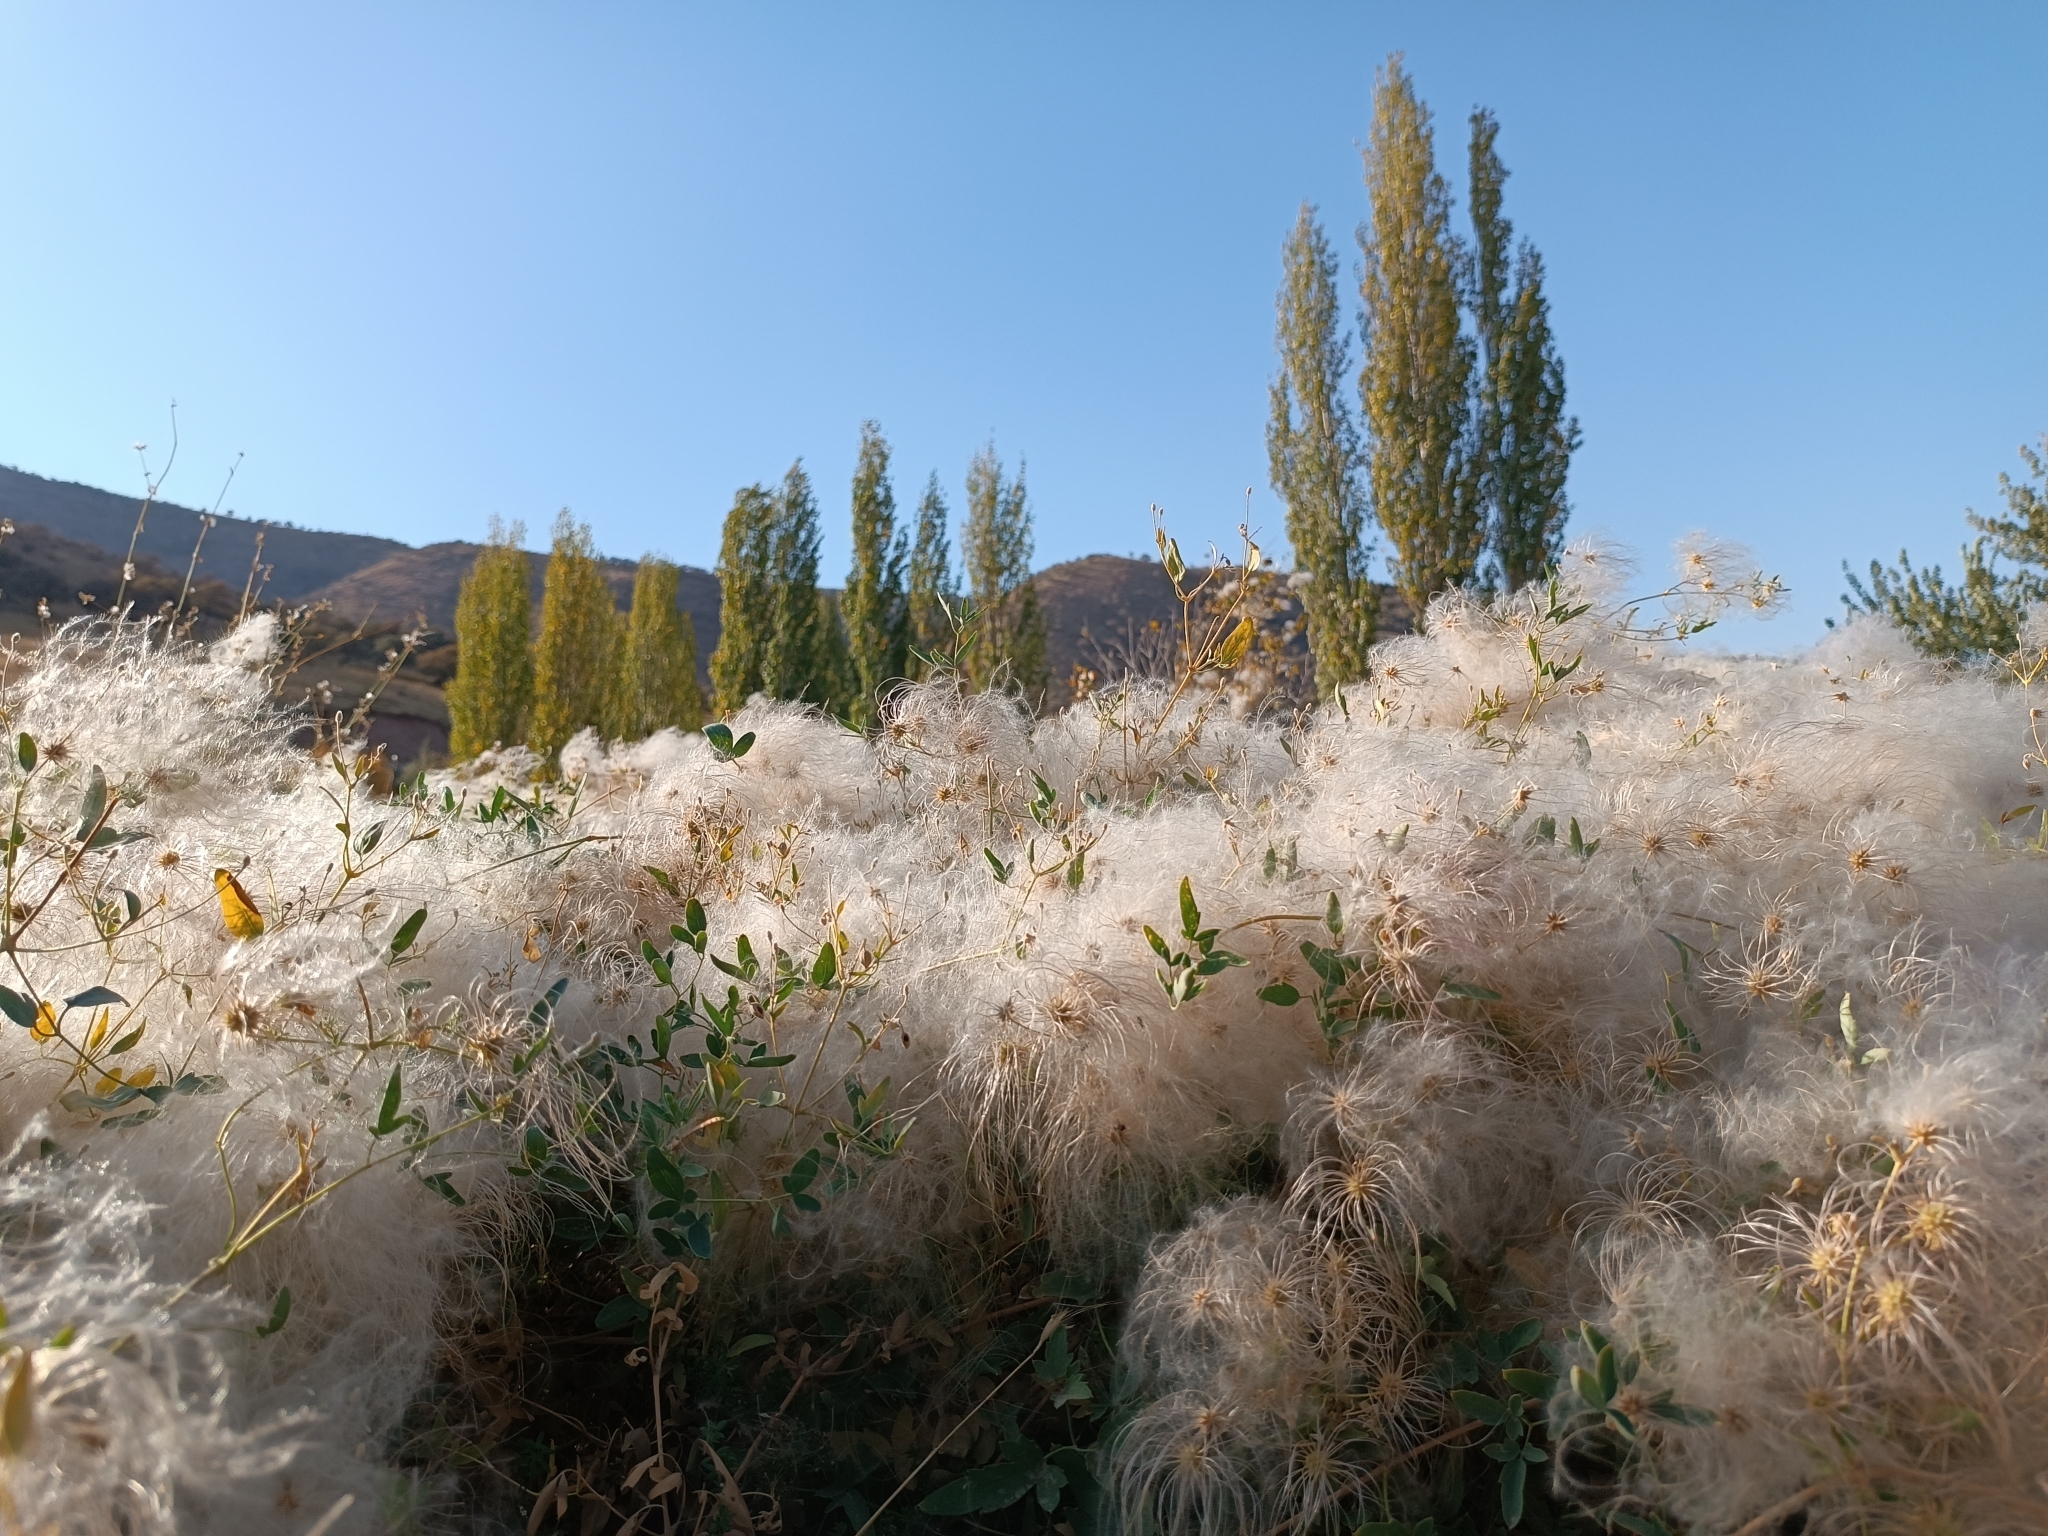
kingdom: Plantae
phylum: Tracheophyta
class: Magnoliopsida
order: Ranunculales
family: Ranunculaceae
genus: Clematis
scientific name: Clematis orientalis
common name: Oriental virgin's-bower
